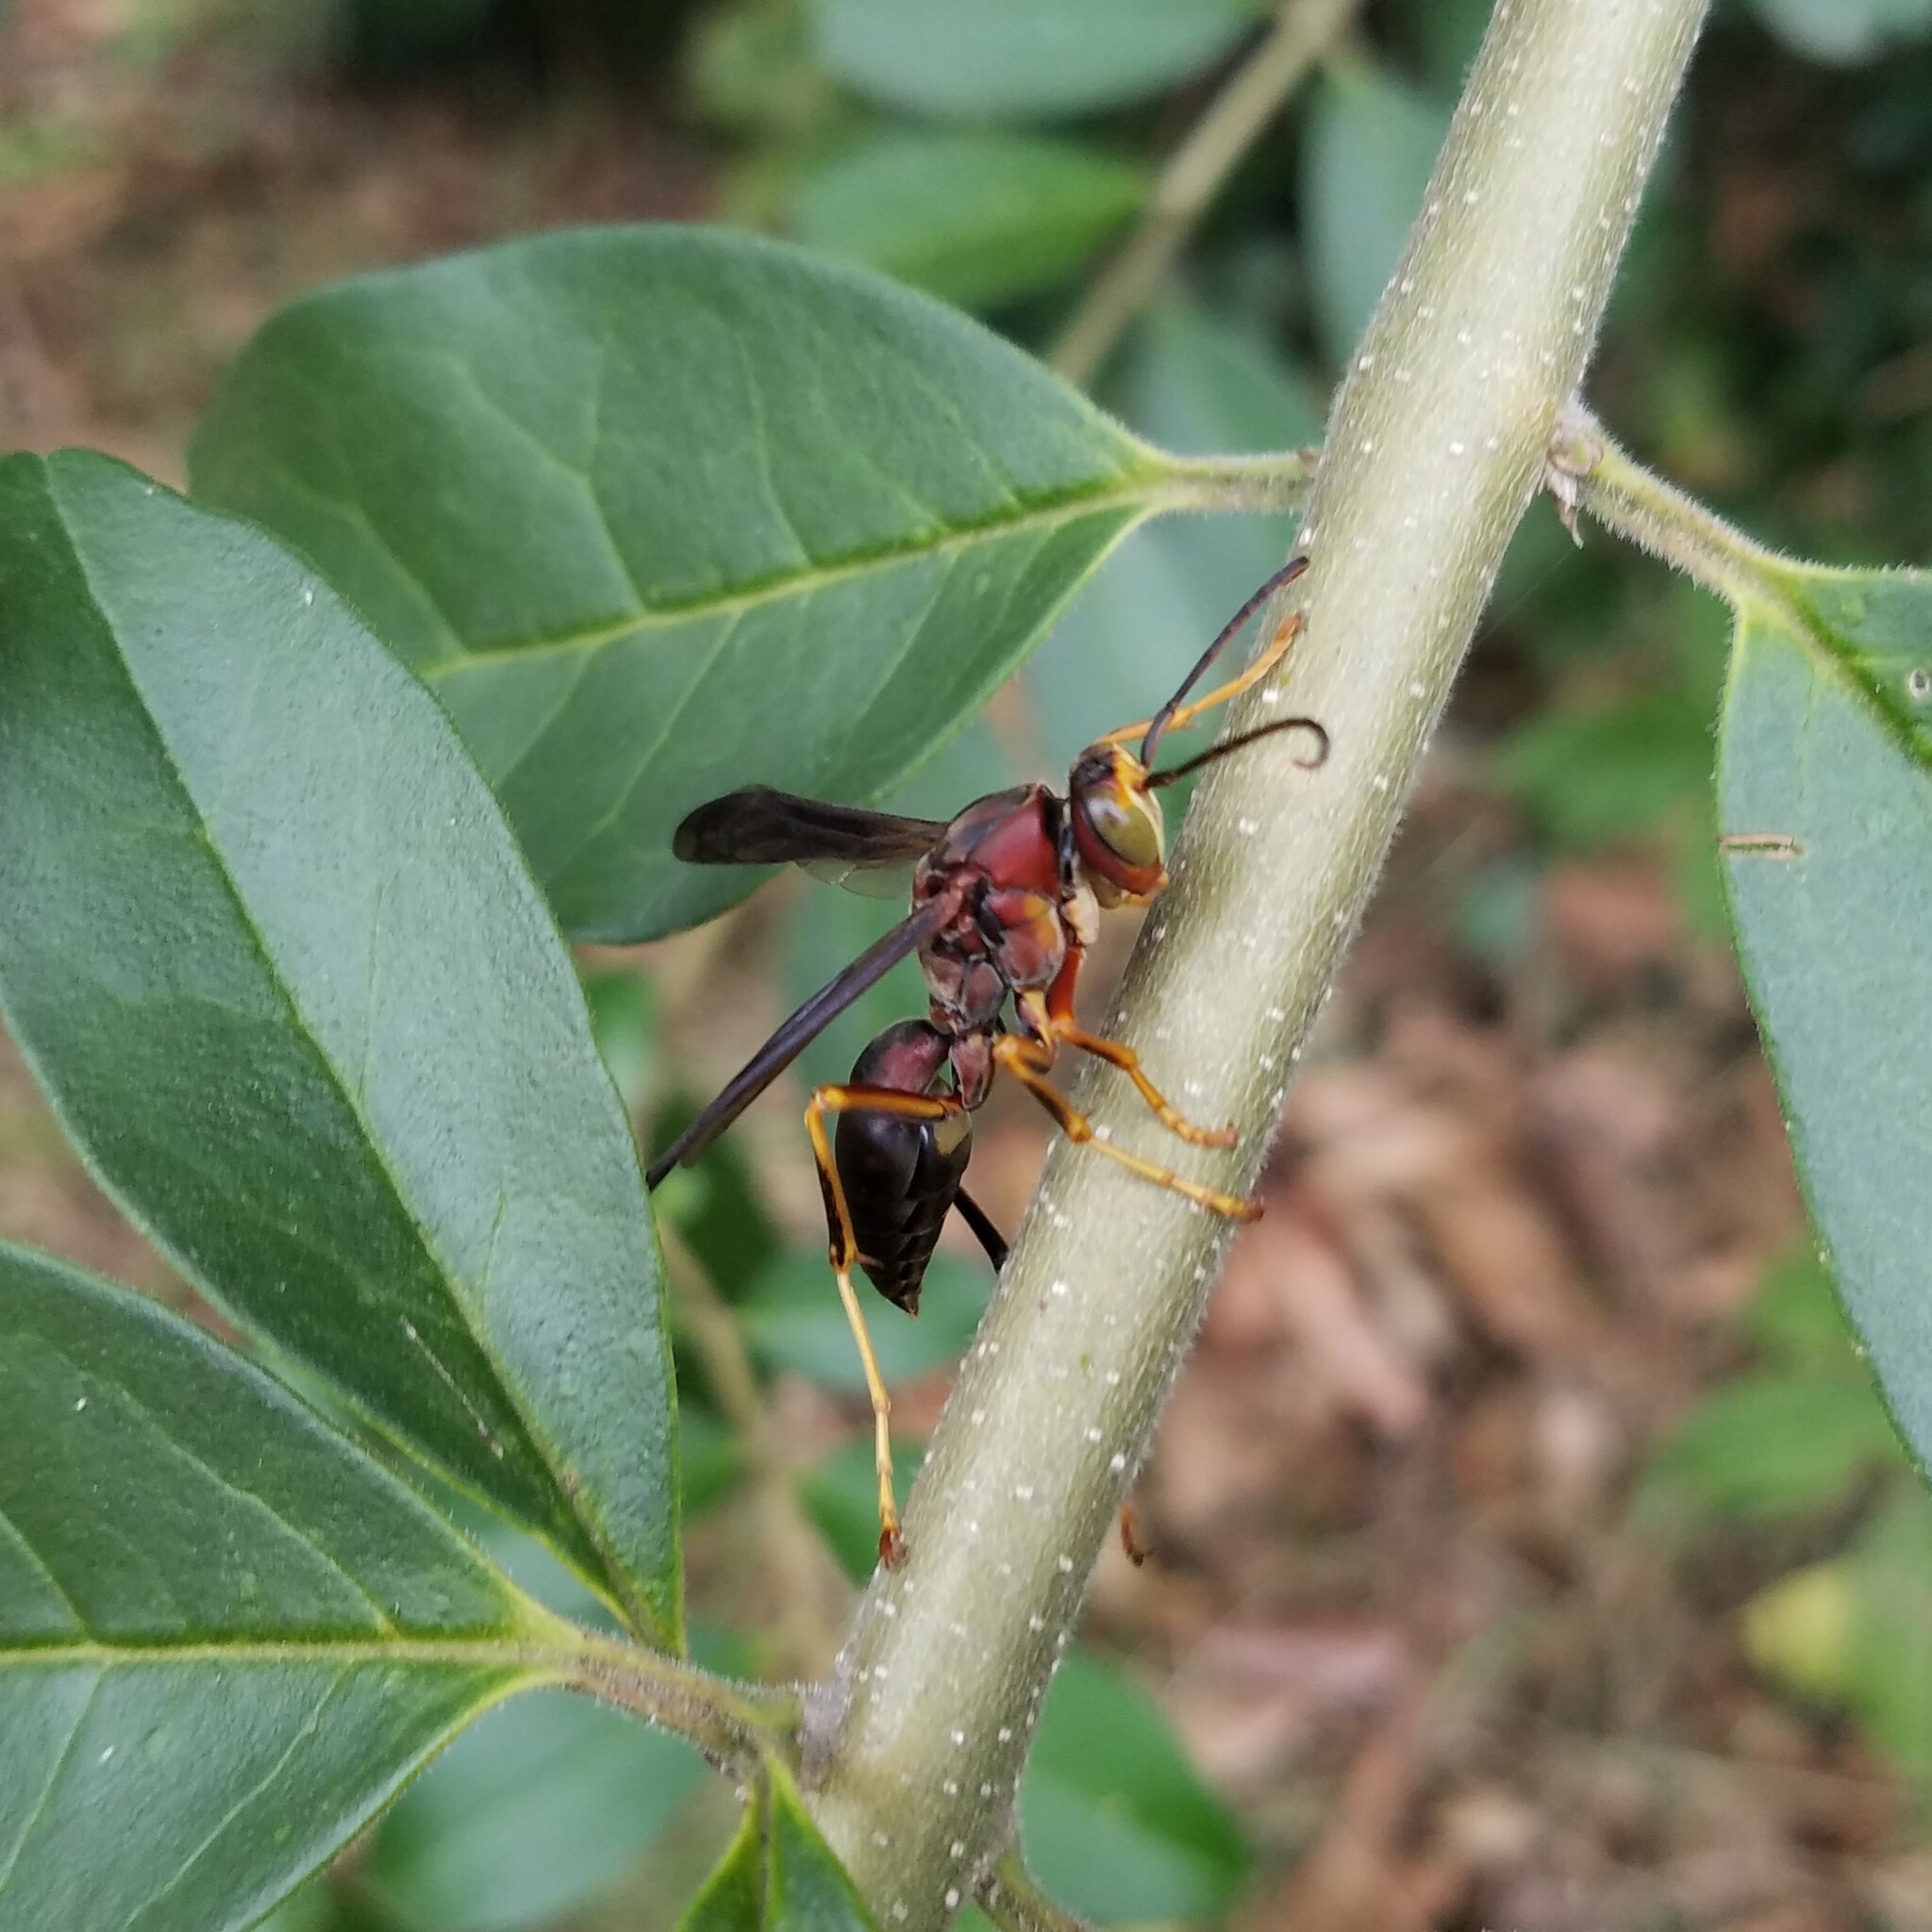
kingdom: Animalia
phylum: Arthropoda
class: Insecta
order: Hymenoptera
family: Eumenidae
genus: Polistes
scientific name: Polistes metricus
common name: Metric paper wasp
